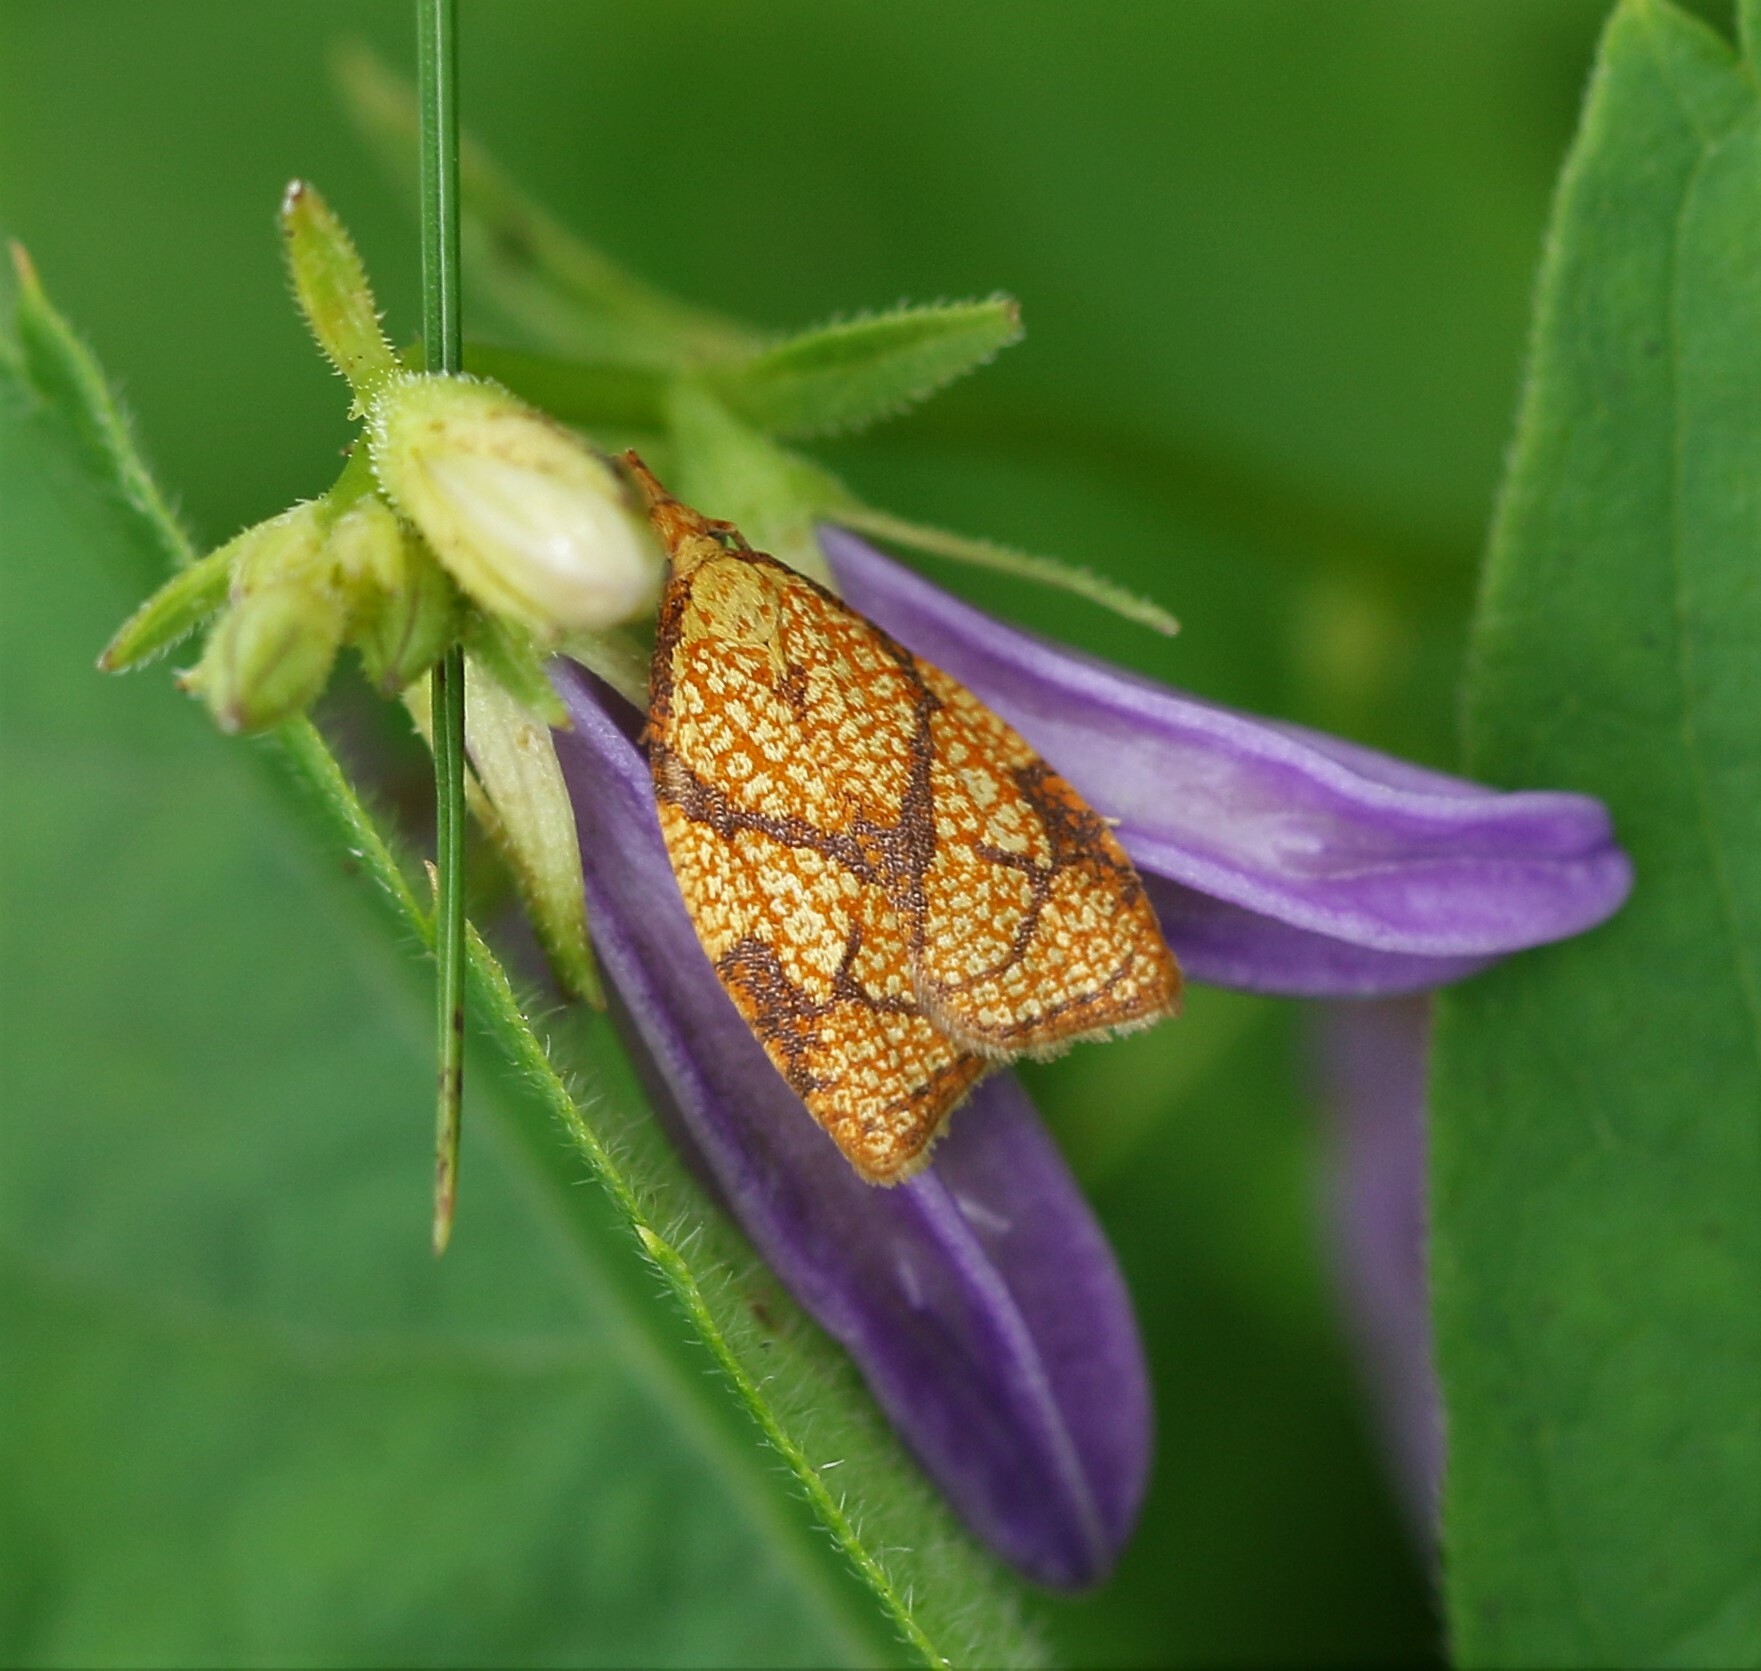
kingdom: Animalia
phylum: Arthropoda
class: Insecta
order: Lepidoptera
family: Tortricidae
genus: Cenopis
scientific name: Cenopis reticulatana
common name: Reticulated fruitworm moth
